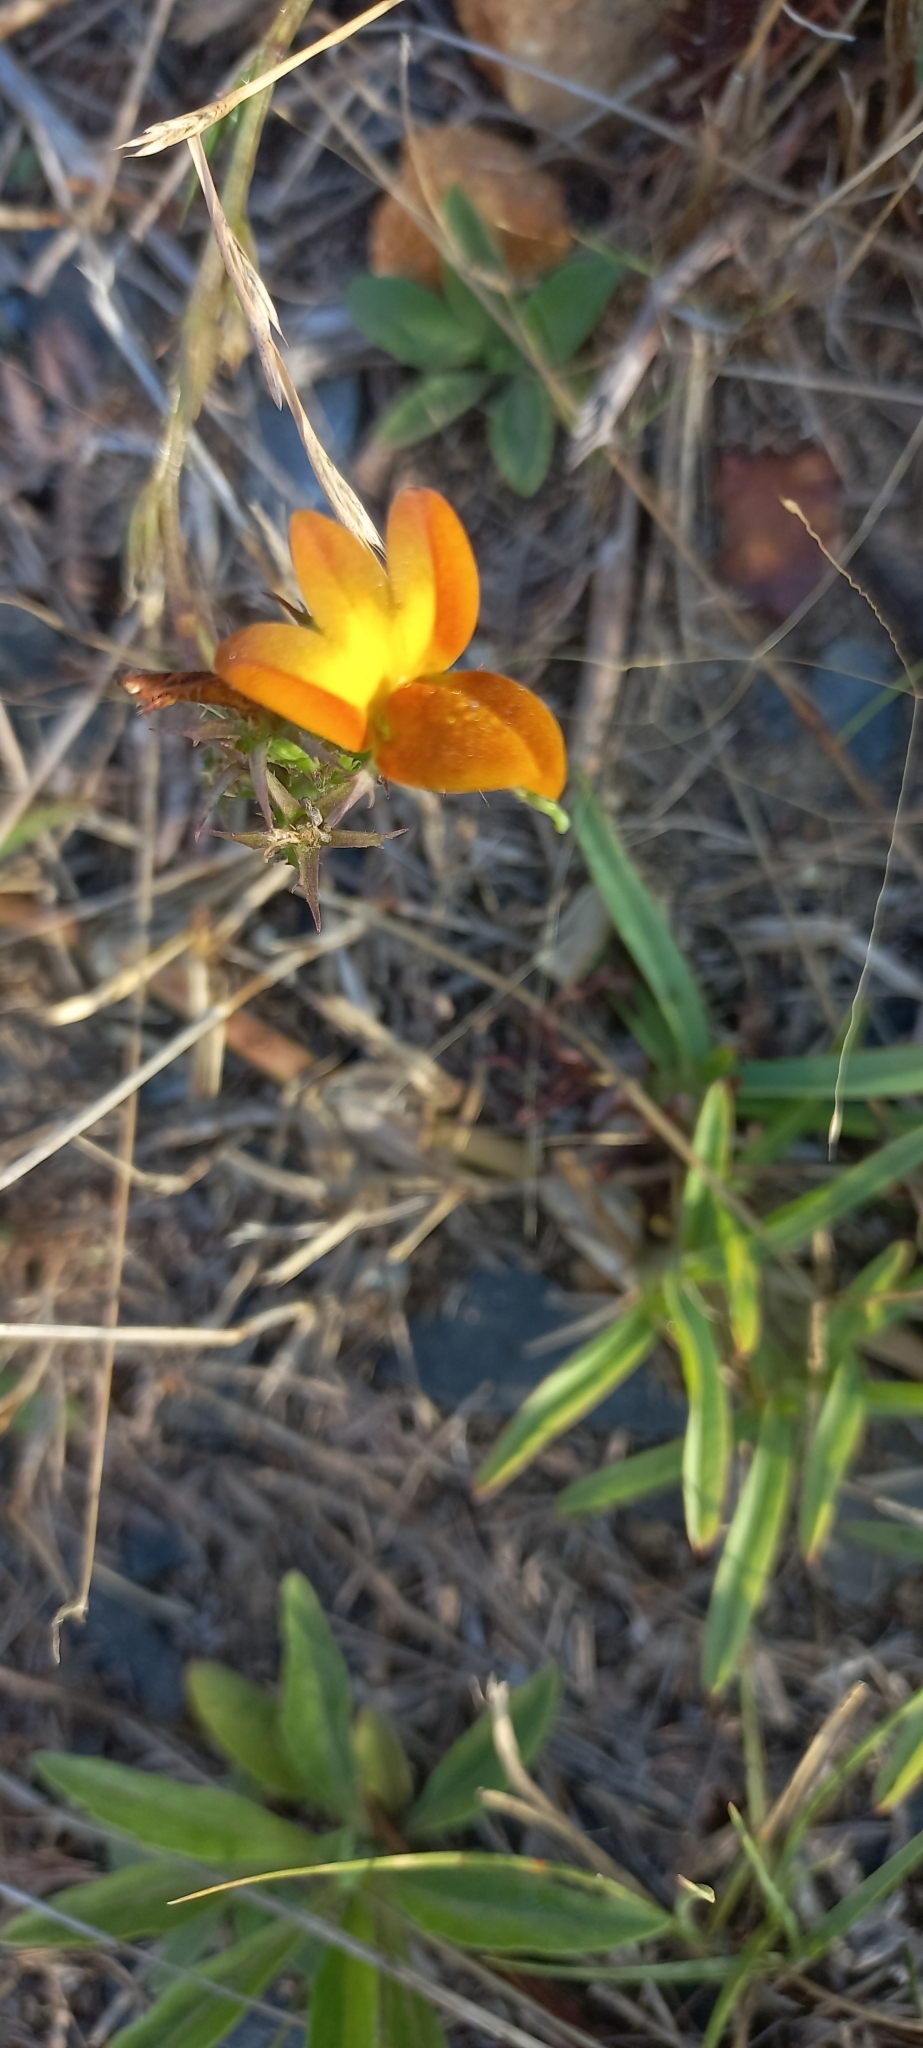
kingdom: Plantae
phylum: Tracheophyta
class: Magnoliopsida
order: Asterales
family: Campanulaceae
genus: Monopsis
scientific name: Monopsis lutea
